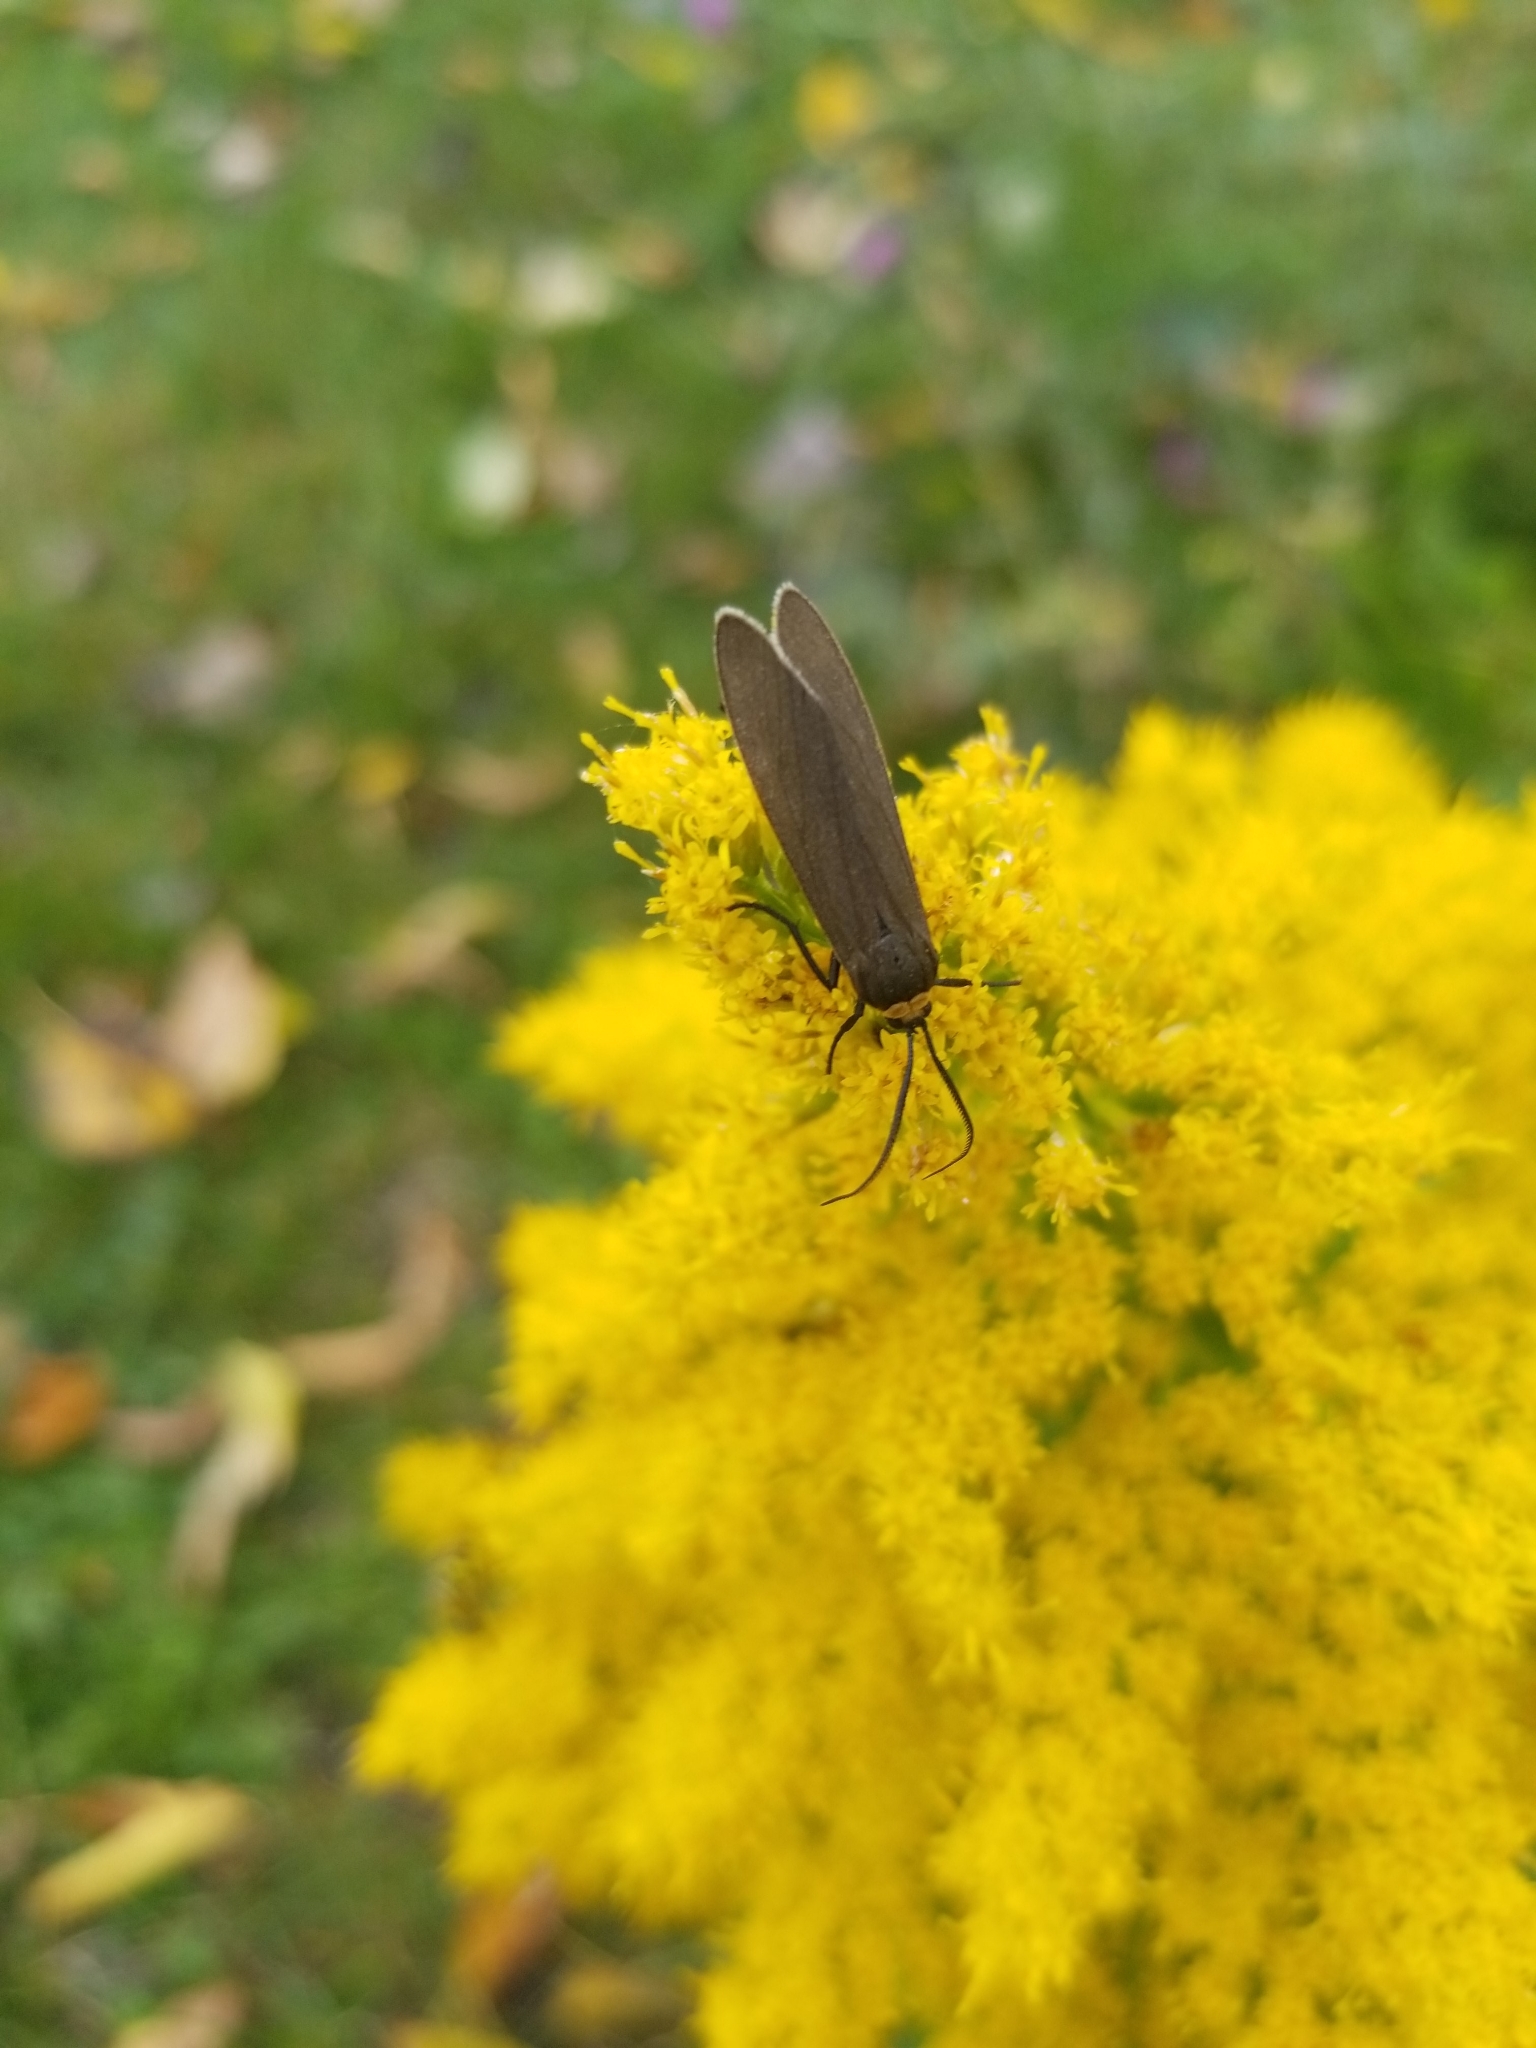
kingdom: Animalia
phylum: Arthropoda
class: Insecta
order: Lepidoptera
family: Erebidae
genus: Cisseps
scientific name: Cisseps fulvicollis
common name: Yellow-collared scape moth
